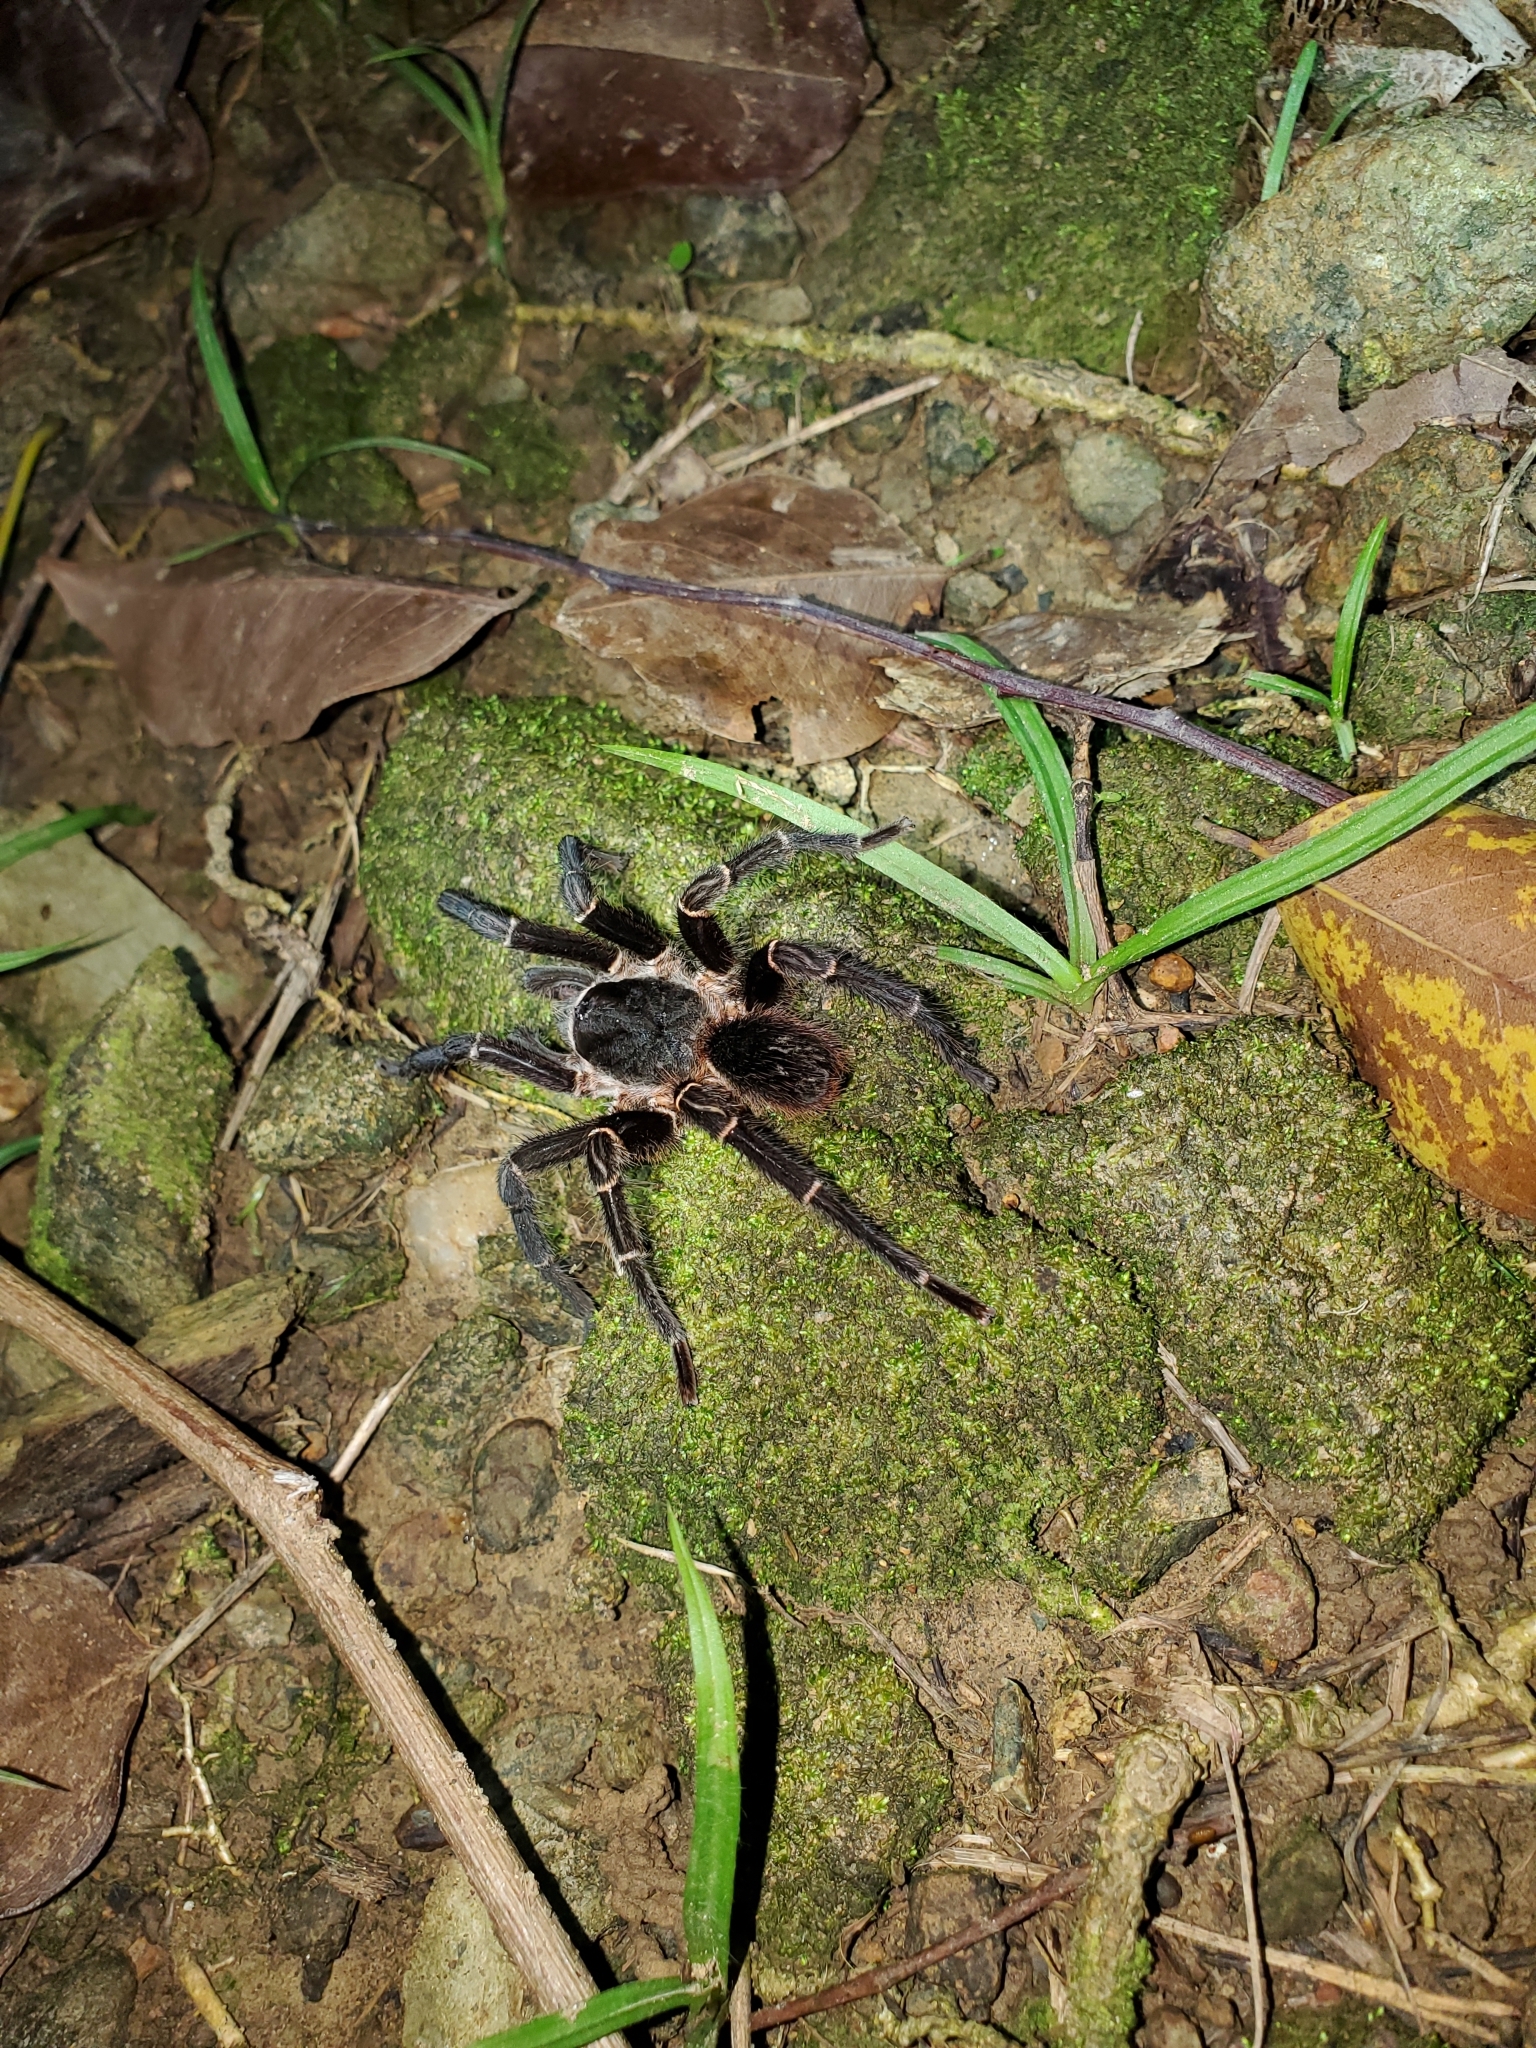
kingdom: Animalia
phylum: Arthropoda
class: Arachnida
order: Araneae
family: Theraphosidae
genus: Cyrtopholis
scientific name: Cyrtopholis portoricae
